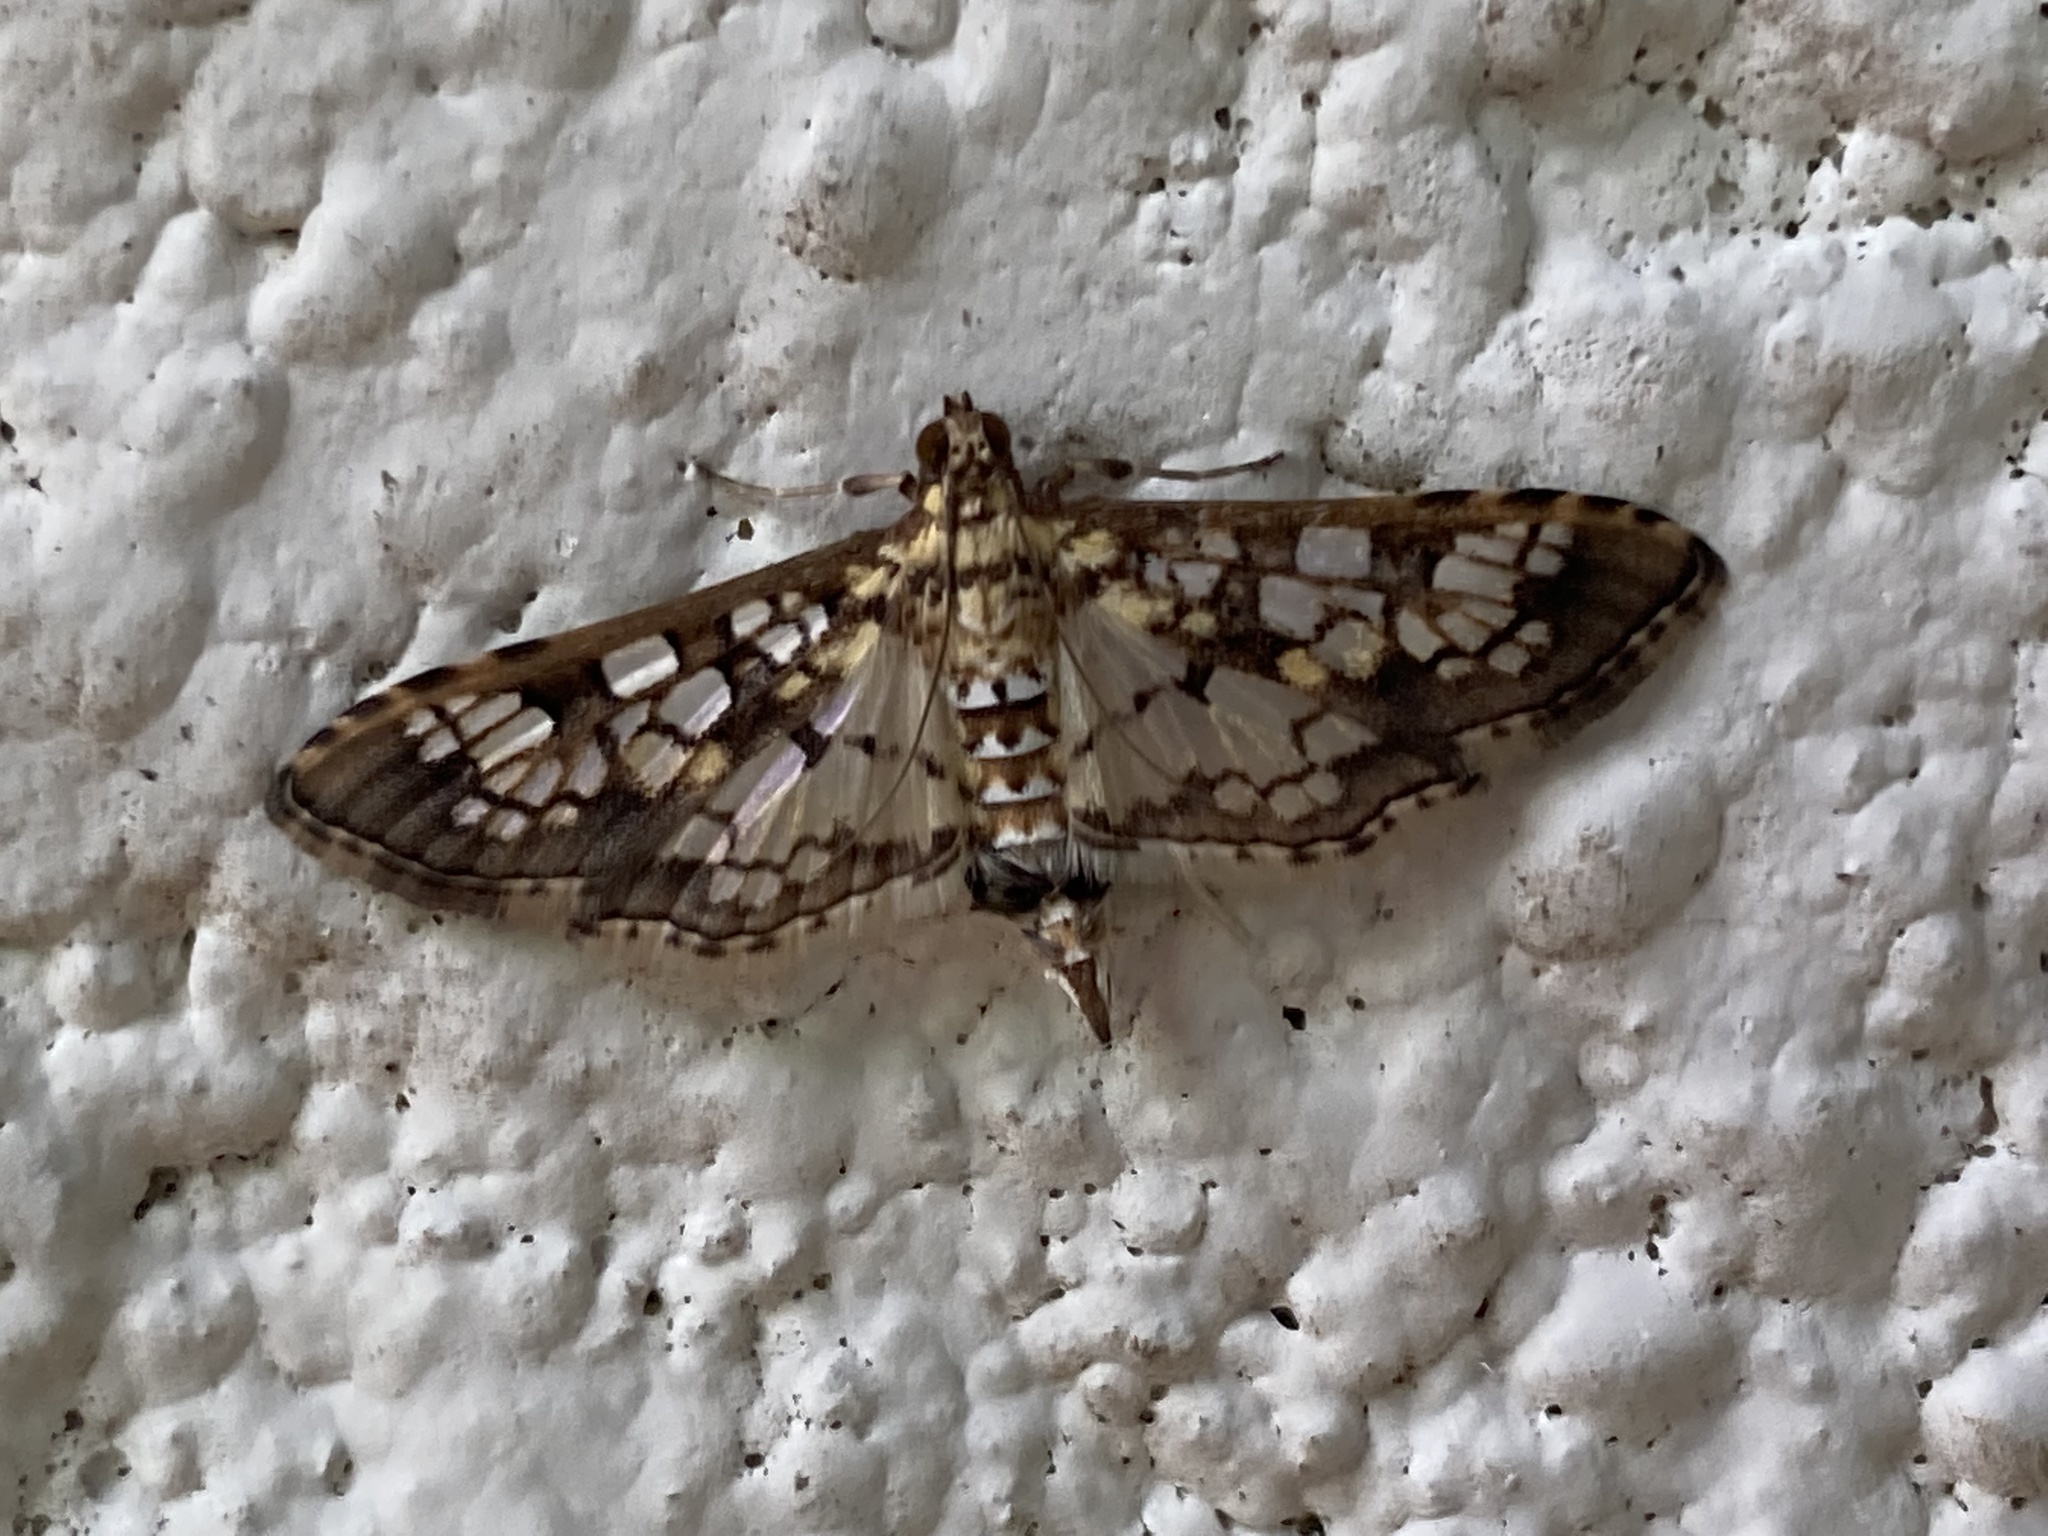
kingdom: Animalia
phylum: Arthropoda
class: Insecta
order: Lepidoptera
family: Crambidae
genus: Samea
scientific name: Samea ecclesialis
